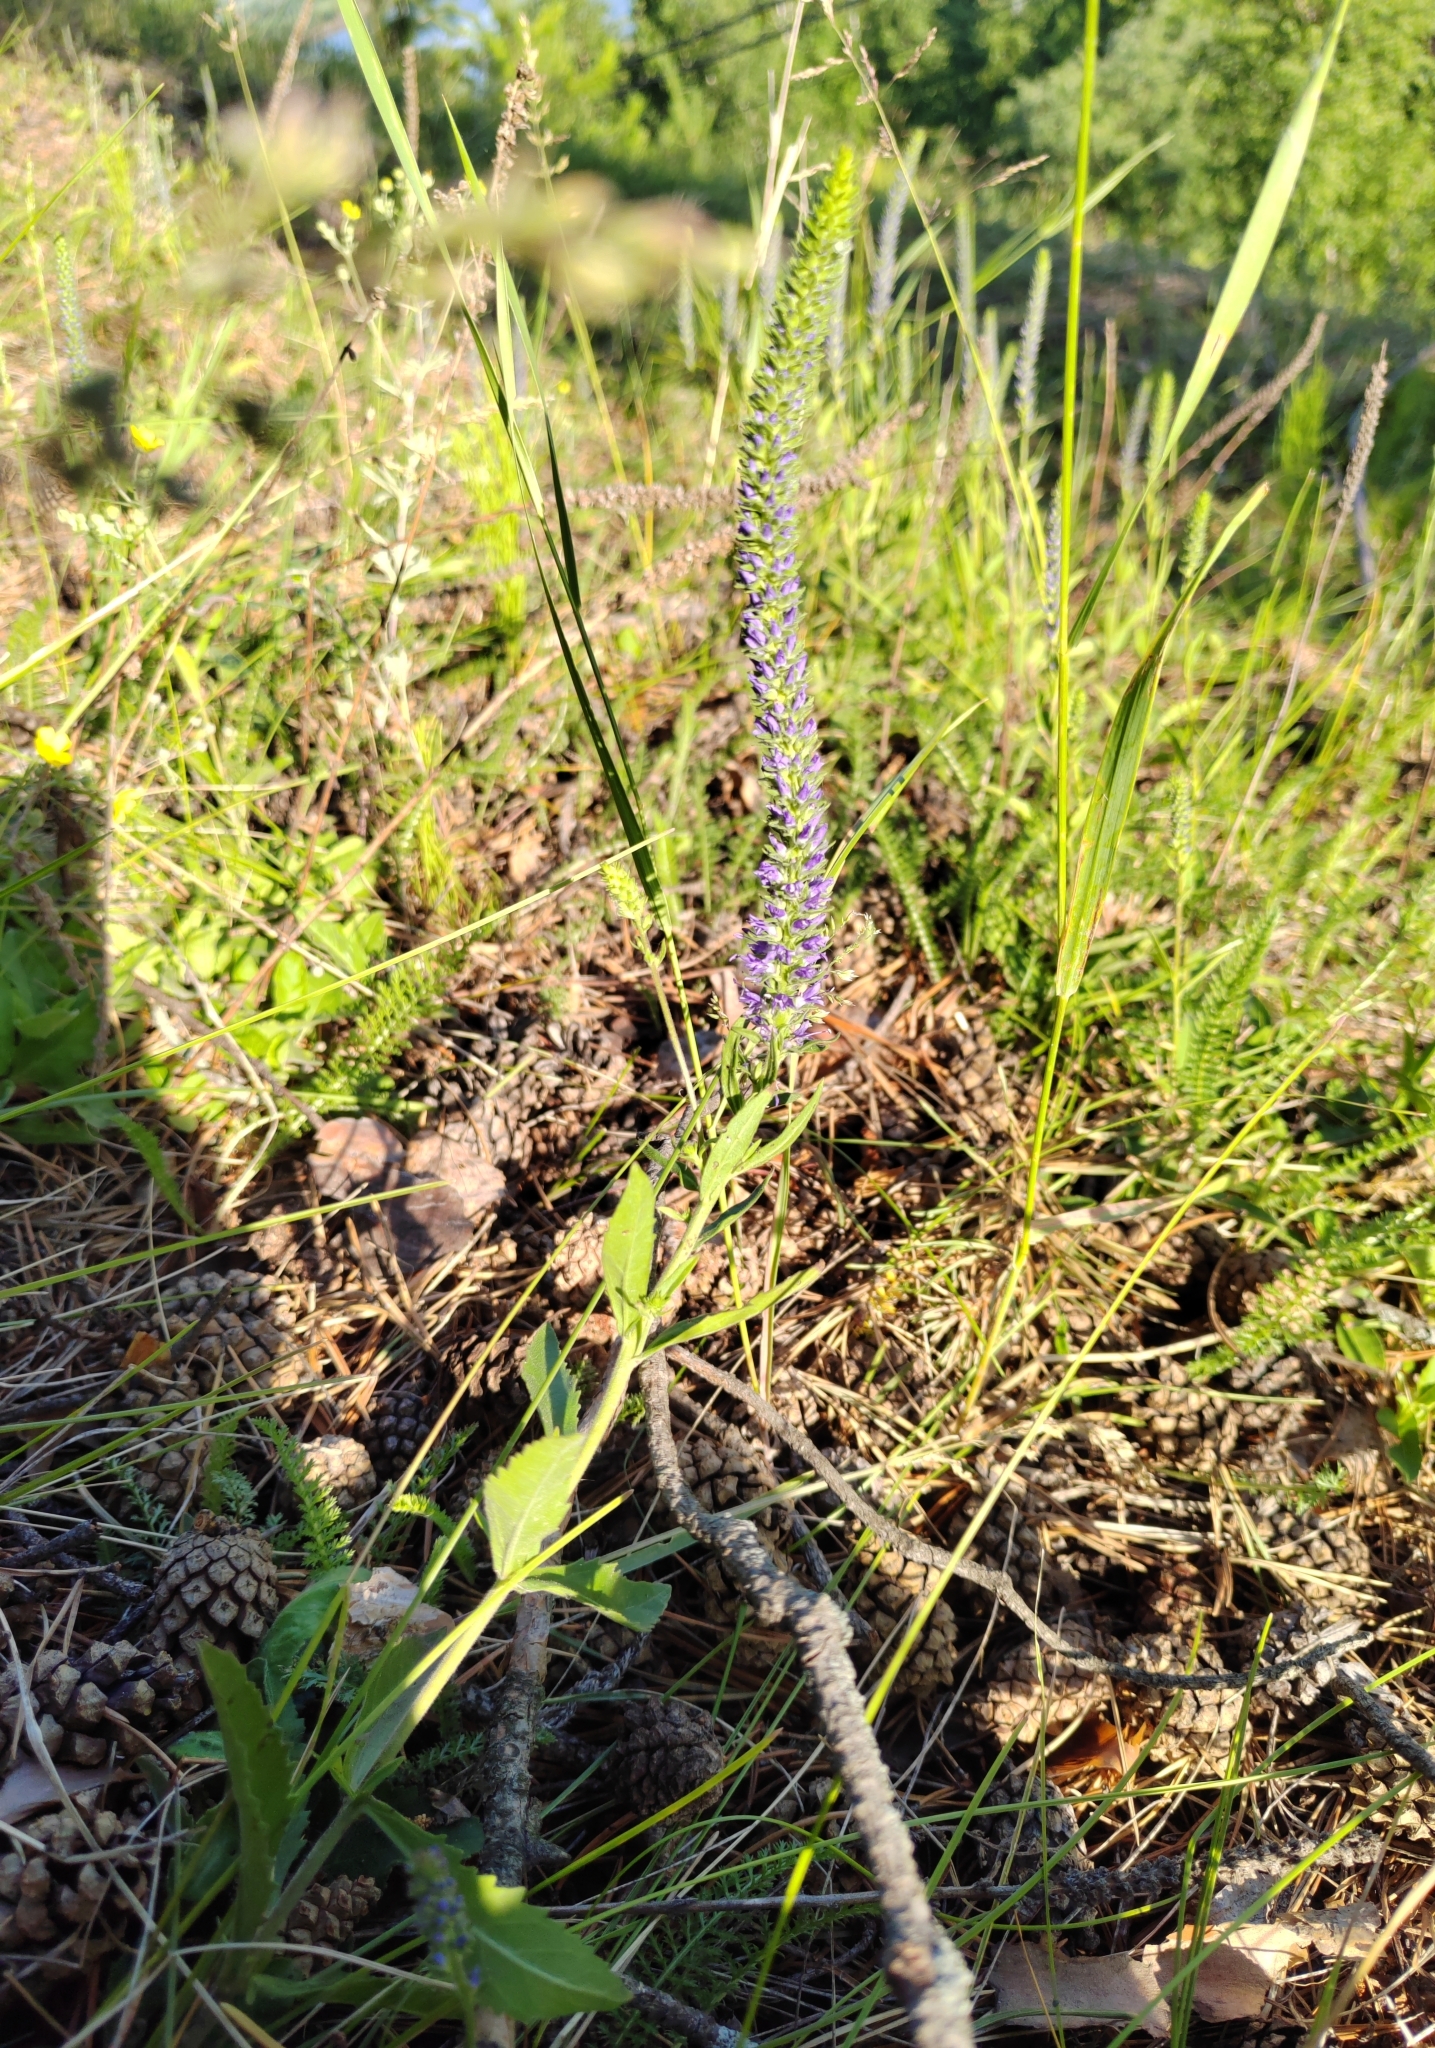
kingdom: Plantae
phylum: Tracheophyta
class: Magnoliopsida
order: Lamiales
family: Plantaginaceae
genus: Veronica
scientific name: Veronica spicata
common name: Spiked speedwell
